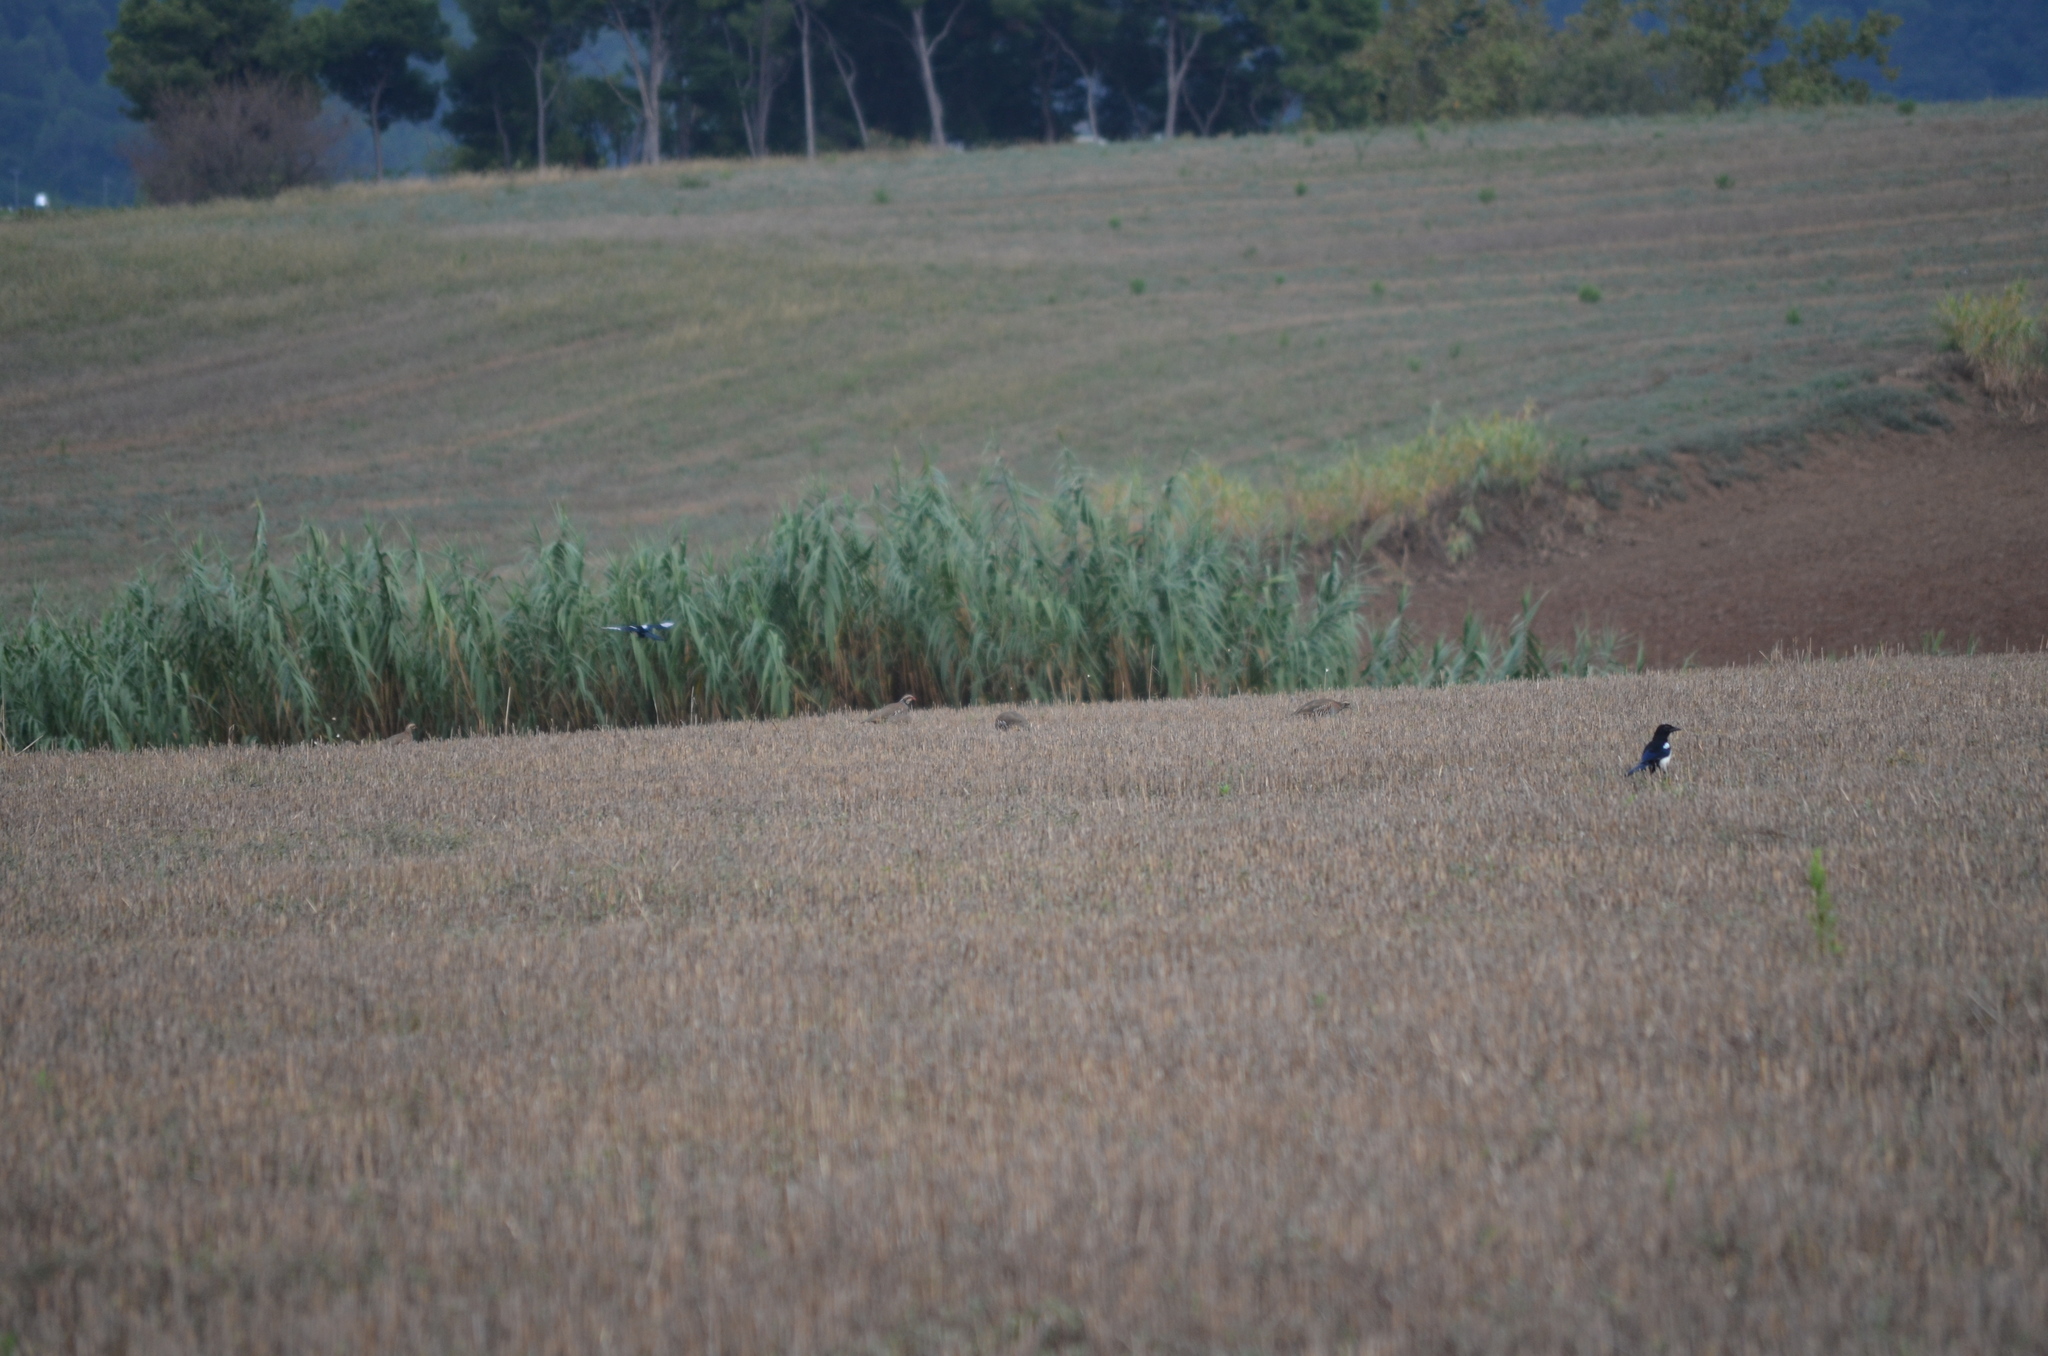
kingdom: Animalia
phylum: Chordata
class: Aves
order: Galliformes
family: Phasianidae
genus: Alectoris
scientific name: Alectoris rufa
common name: Red-legged partridge
